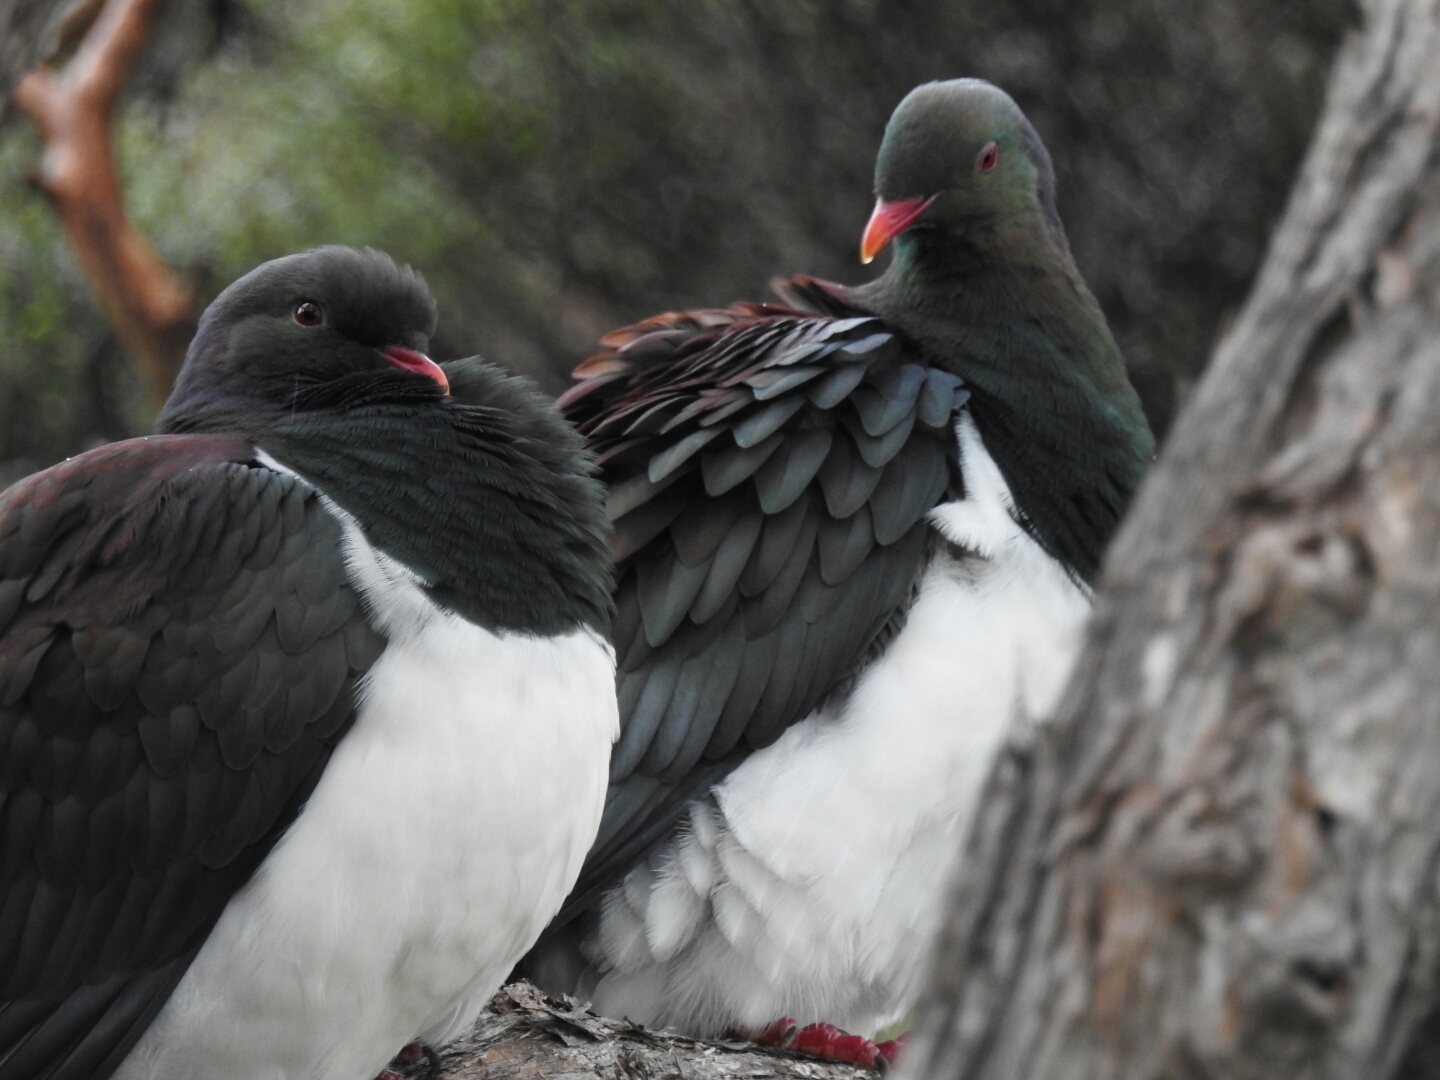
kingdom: Animalia
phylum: Chordata
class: Aves
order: Columbiformes
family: Columbidae
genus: Hemiphaga
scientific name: Hemiphaga novaeseelandiae
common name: New zealand pigeon
